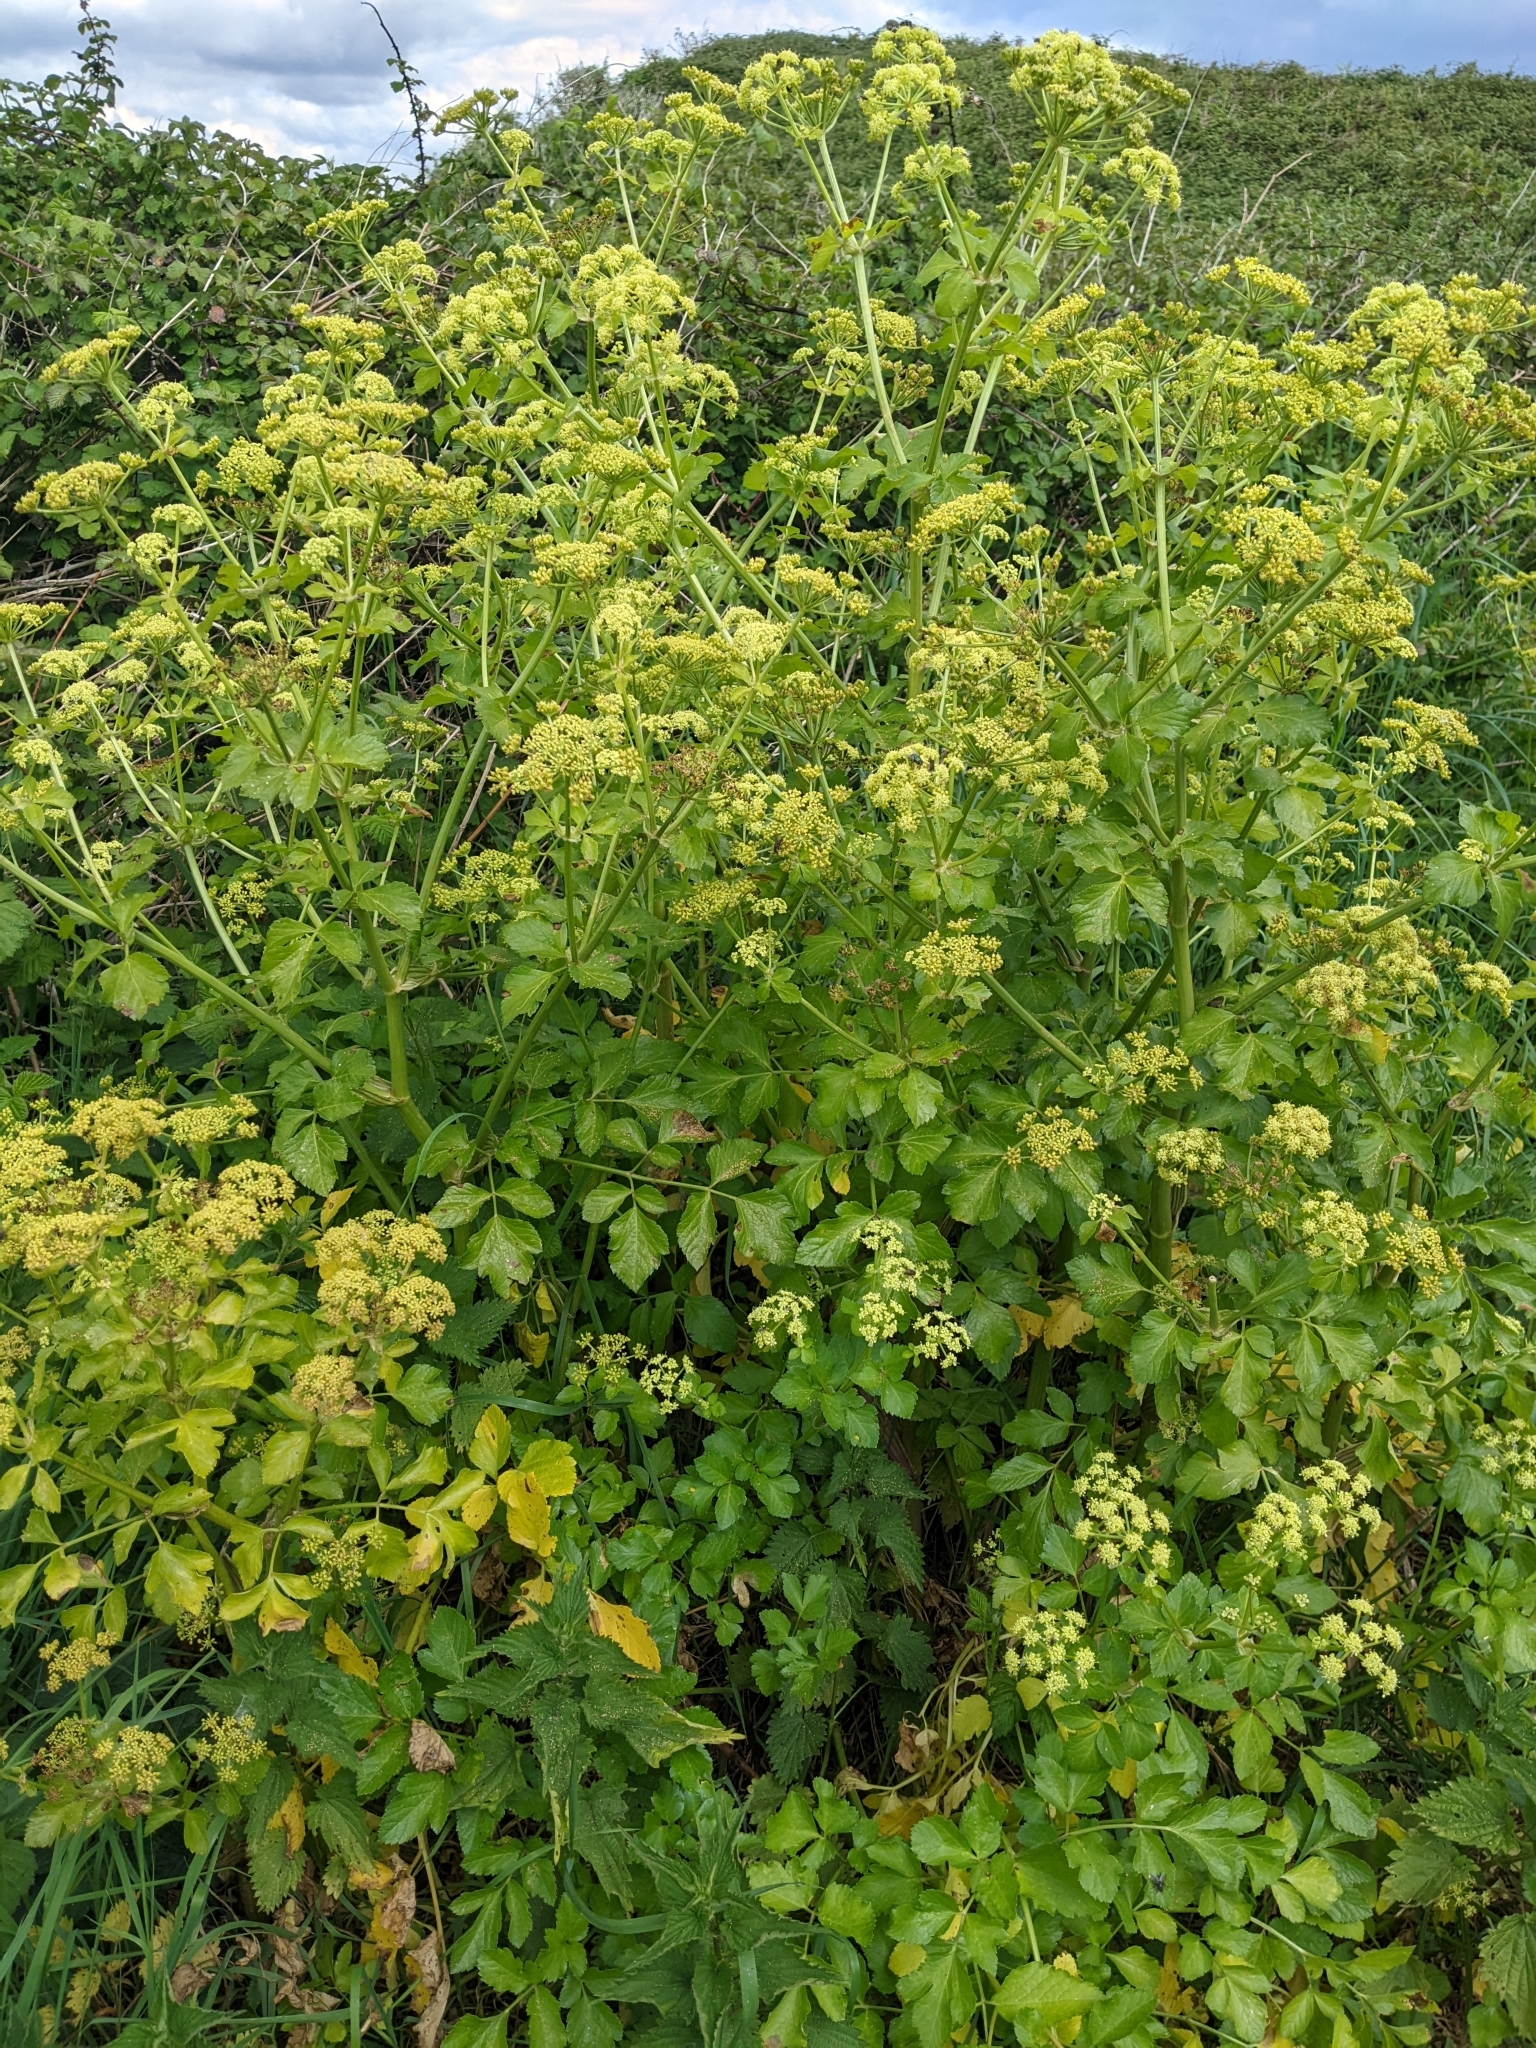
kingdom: Plantae
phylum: Tracheophyta
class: Magnoliopsida
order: Apiales
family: Apiaceae
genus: Smyrnium
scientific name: Smyrnium olusatrum
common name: Alexanders
